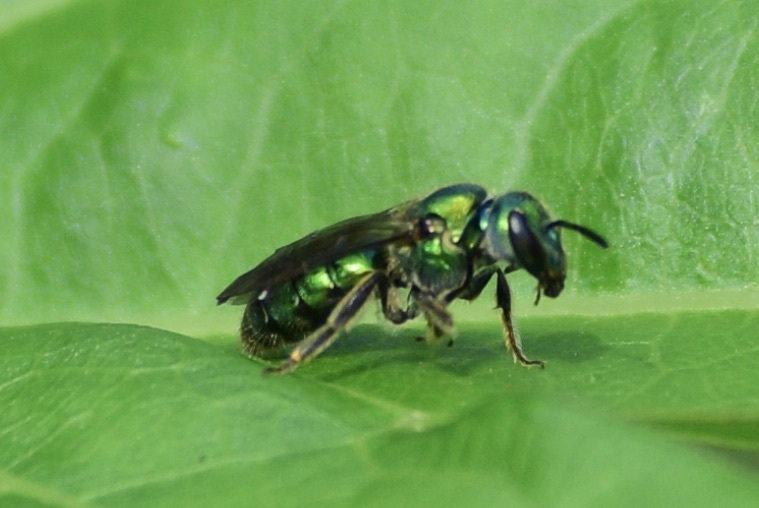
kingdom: Animalia
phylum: Arthropoda
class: Insecta
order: Hymenoptera
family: Halictidae
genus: Augochlora
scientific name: Augochlora pura
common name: Pure green sweat bee
